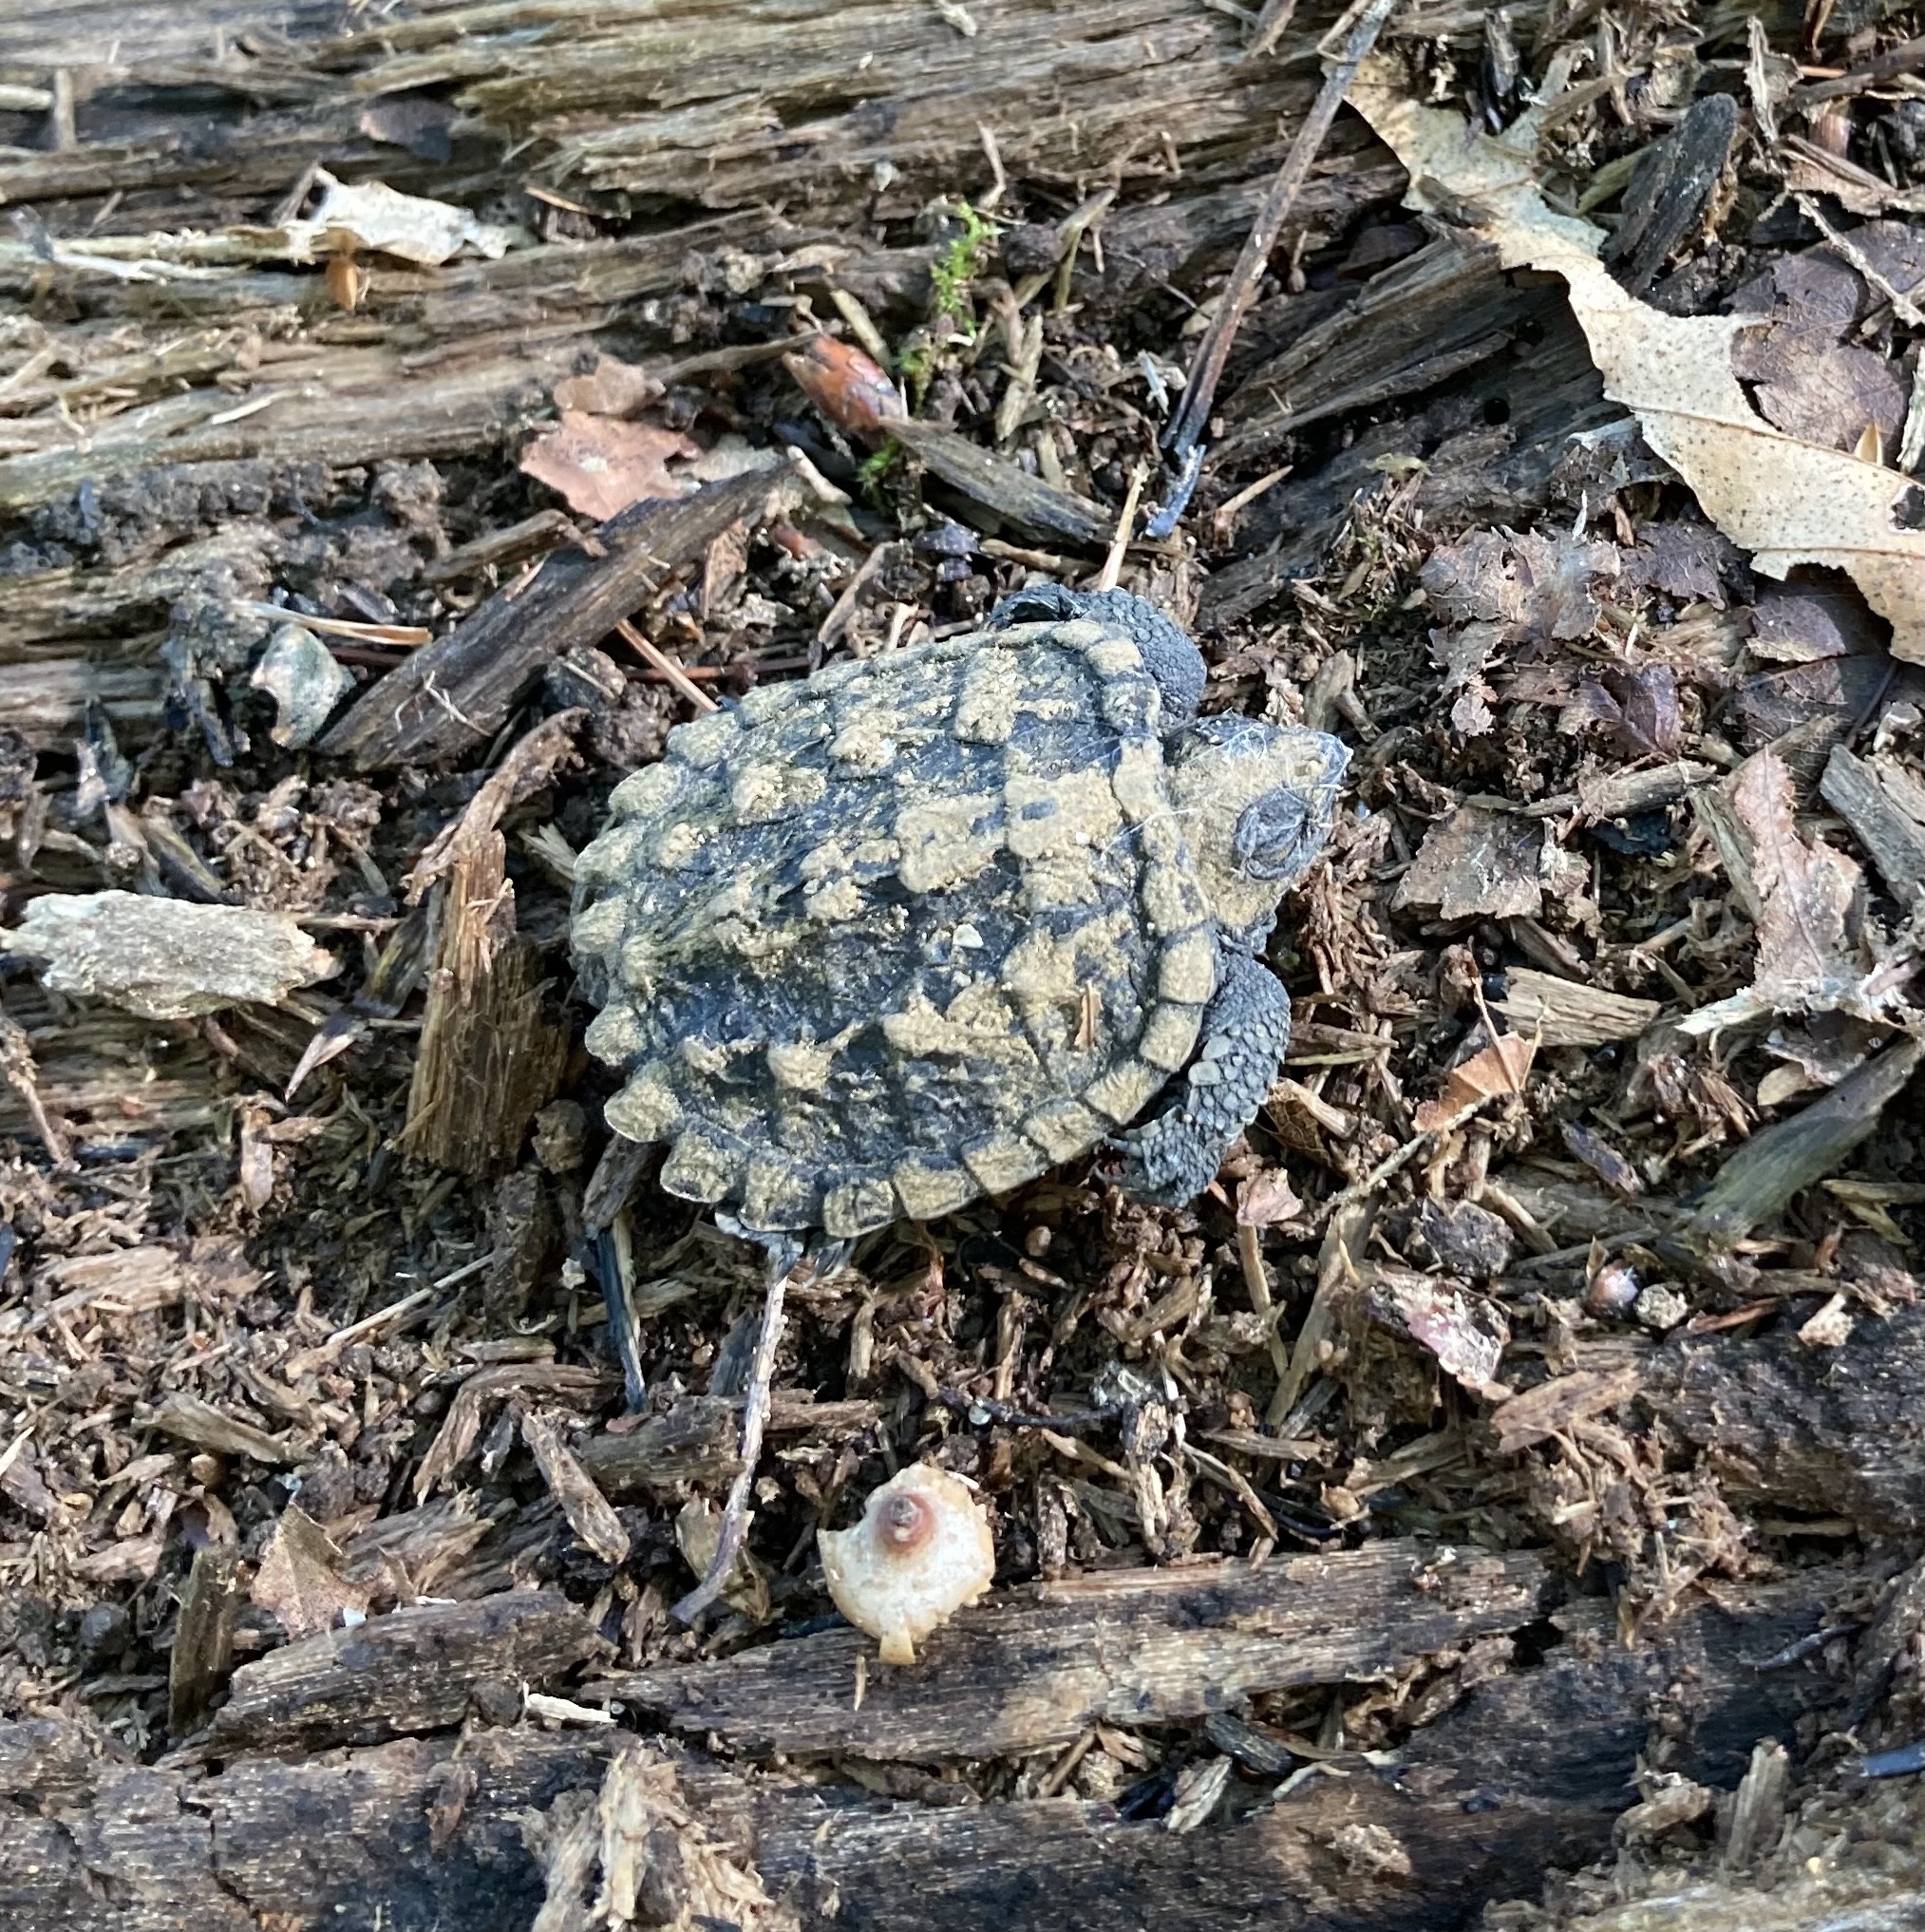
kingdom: Animalia
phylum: Chordata
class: Testudines
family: Chelydridae
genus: Chelydra
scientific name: Chelydra serpentina
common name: Common snapping turtle
